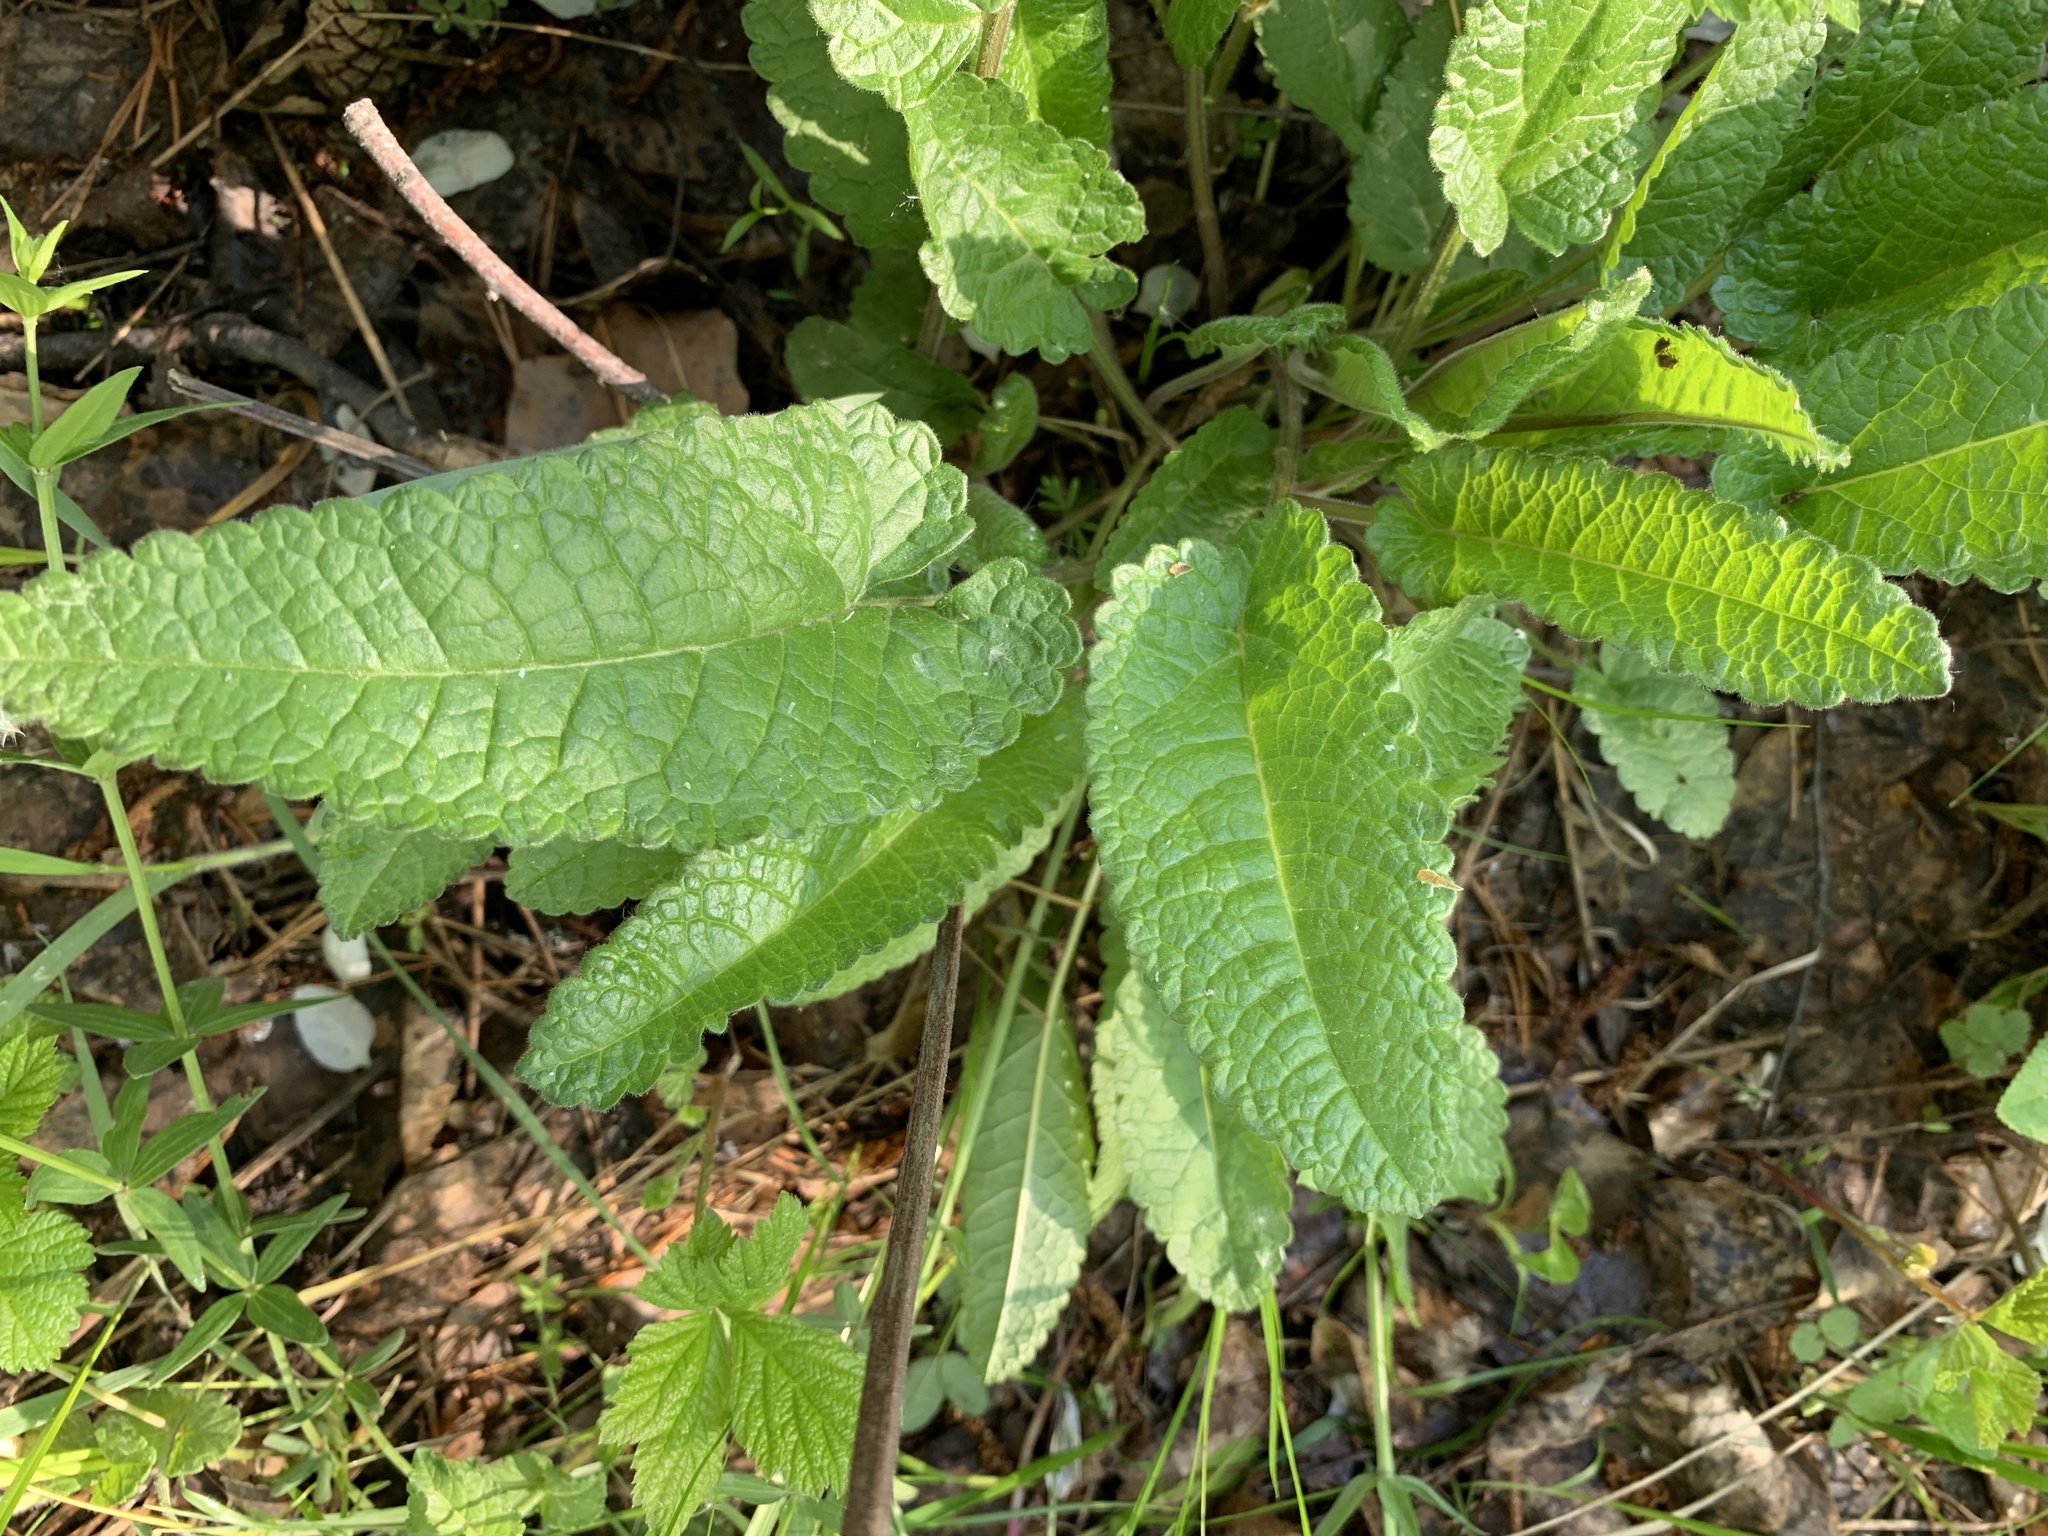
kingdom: Plantae
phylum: Tracheophyta
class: Magnoliopsida
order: Lamiales
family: Lamiaceae
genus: Betonica
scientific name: Betonica officinalis
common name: Bishop's-wort
